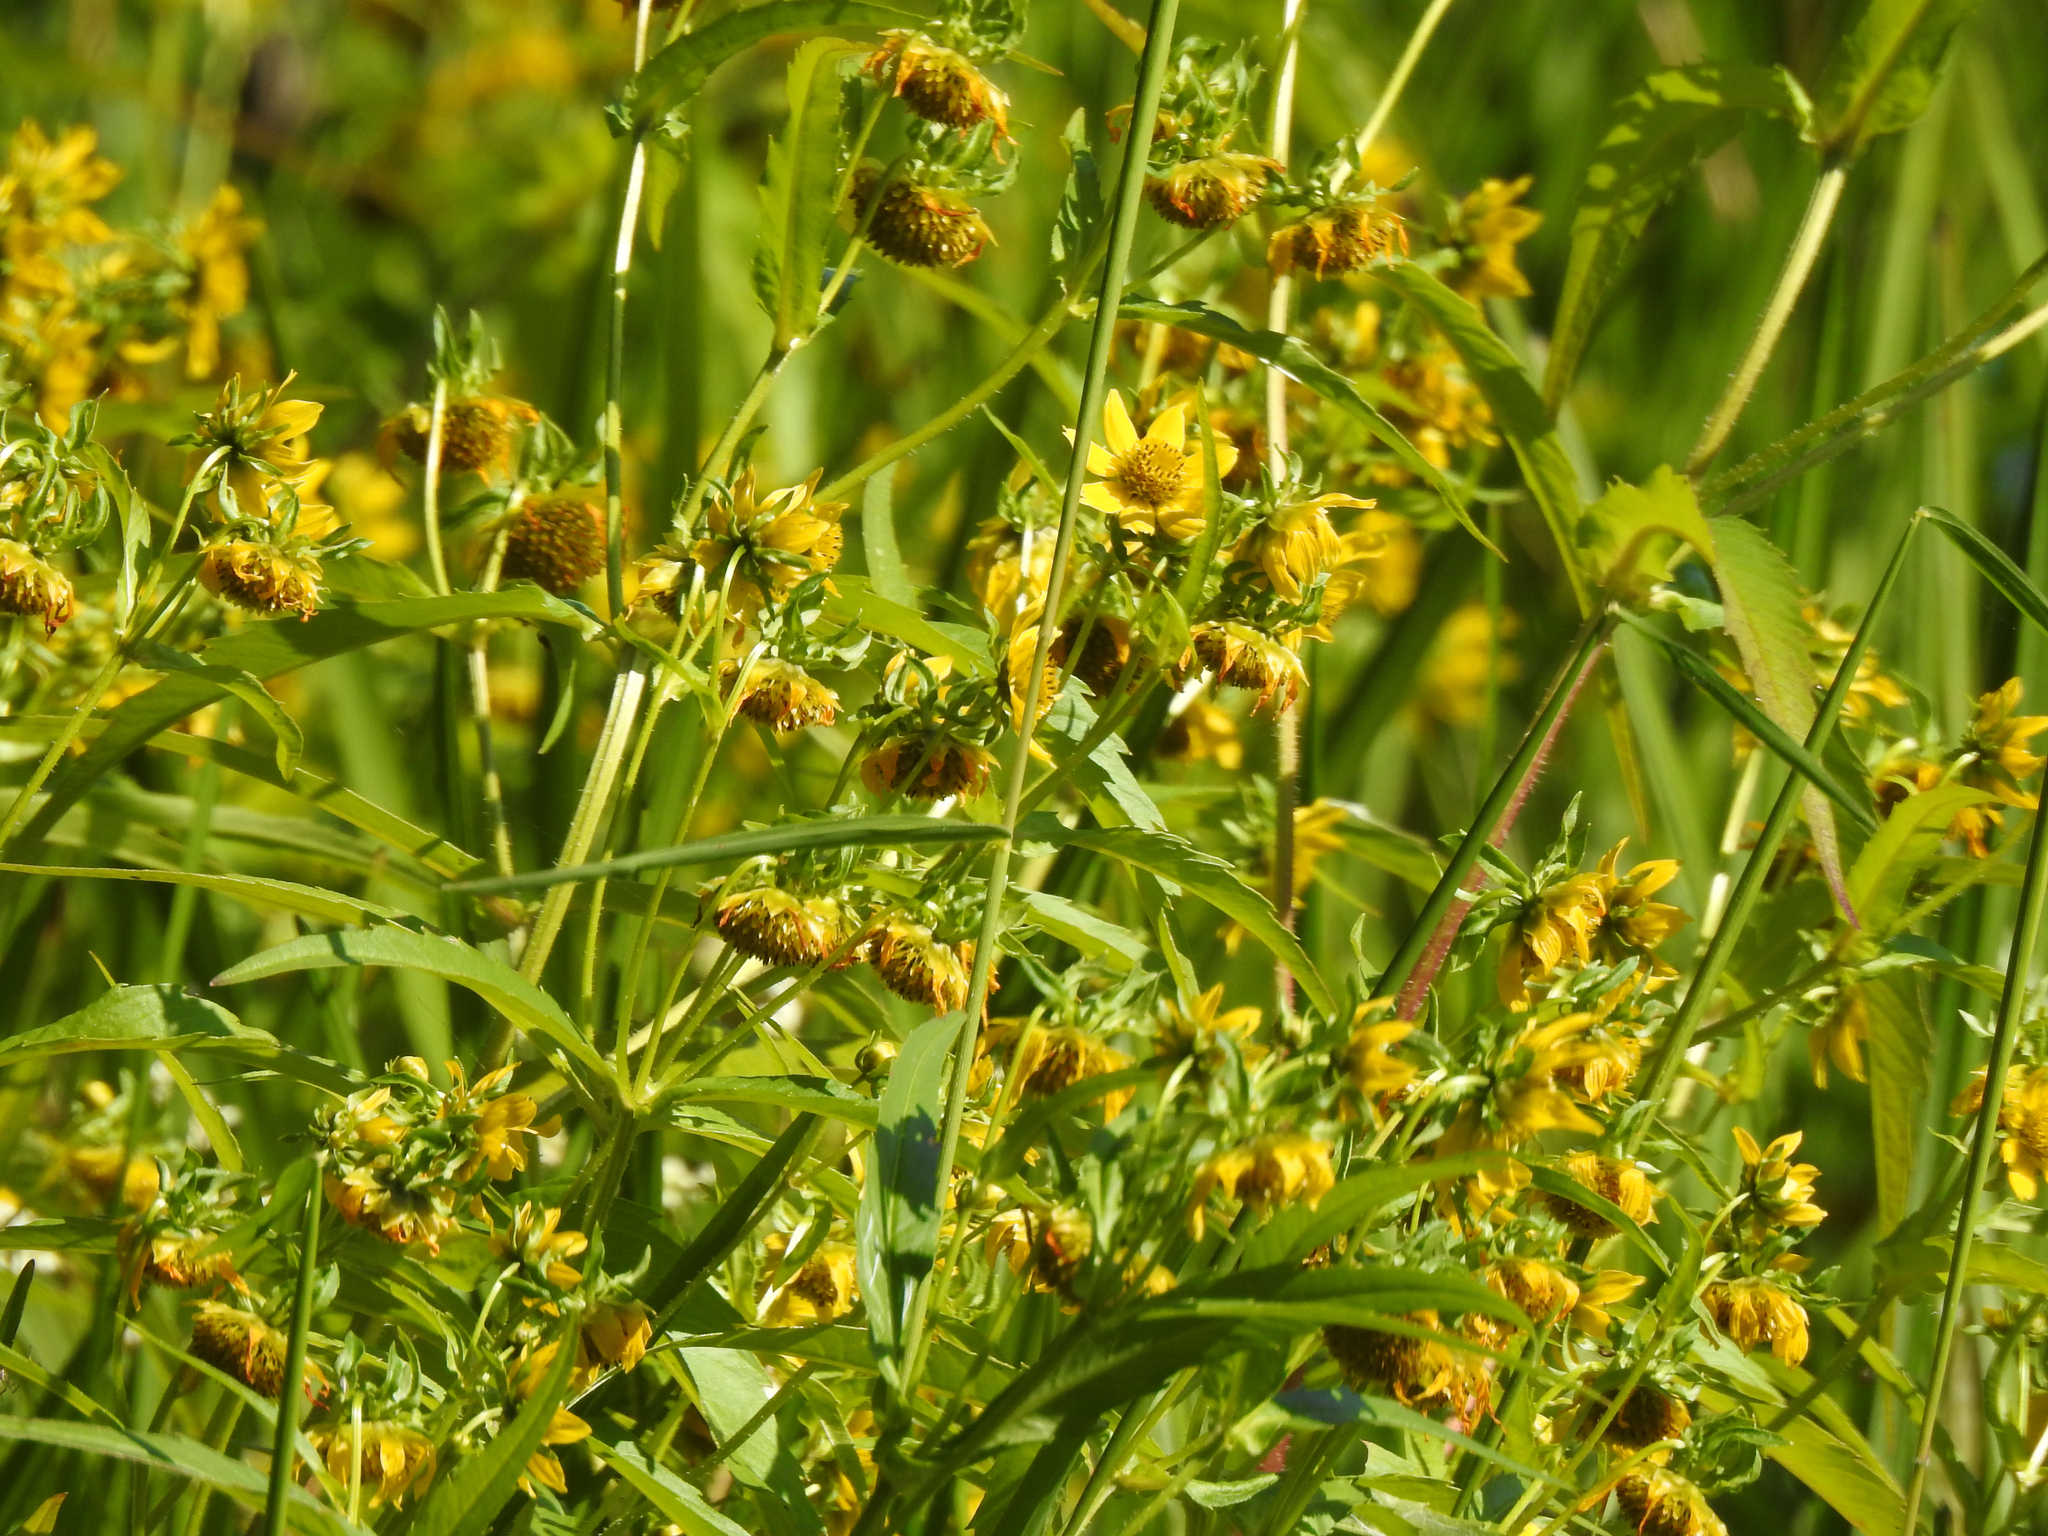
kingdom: Plantae
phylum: Tracheophyta
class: Magnoliopsida
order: Asterales
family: Asteraceae
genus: Bidens
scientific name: Bidens cernua
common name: Nodding bur-marigold
